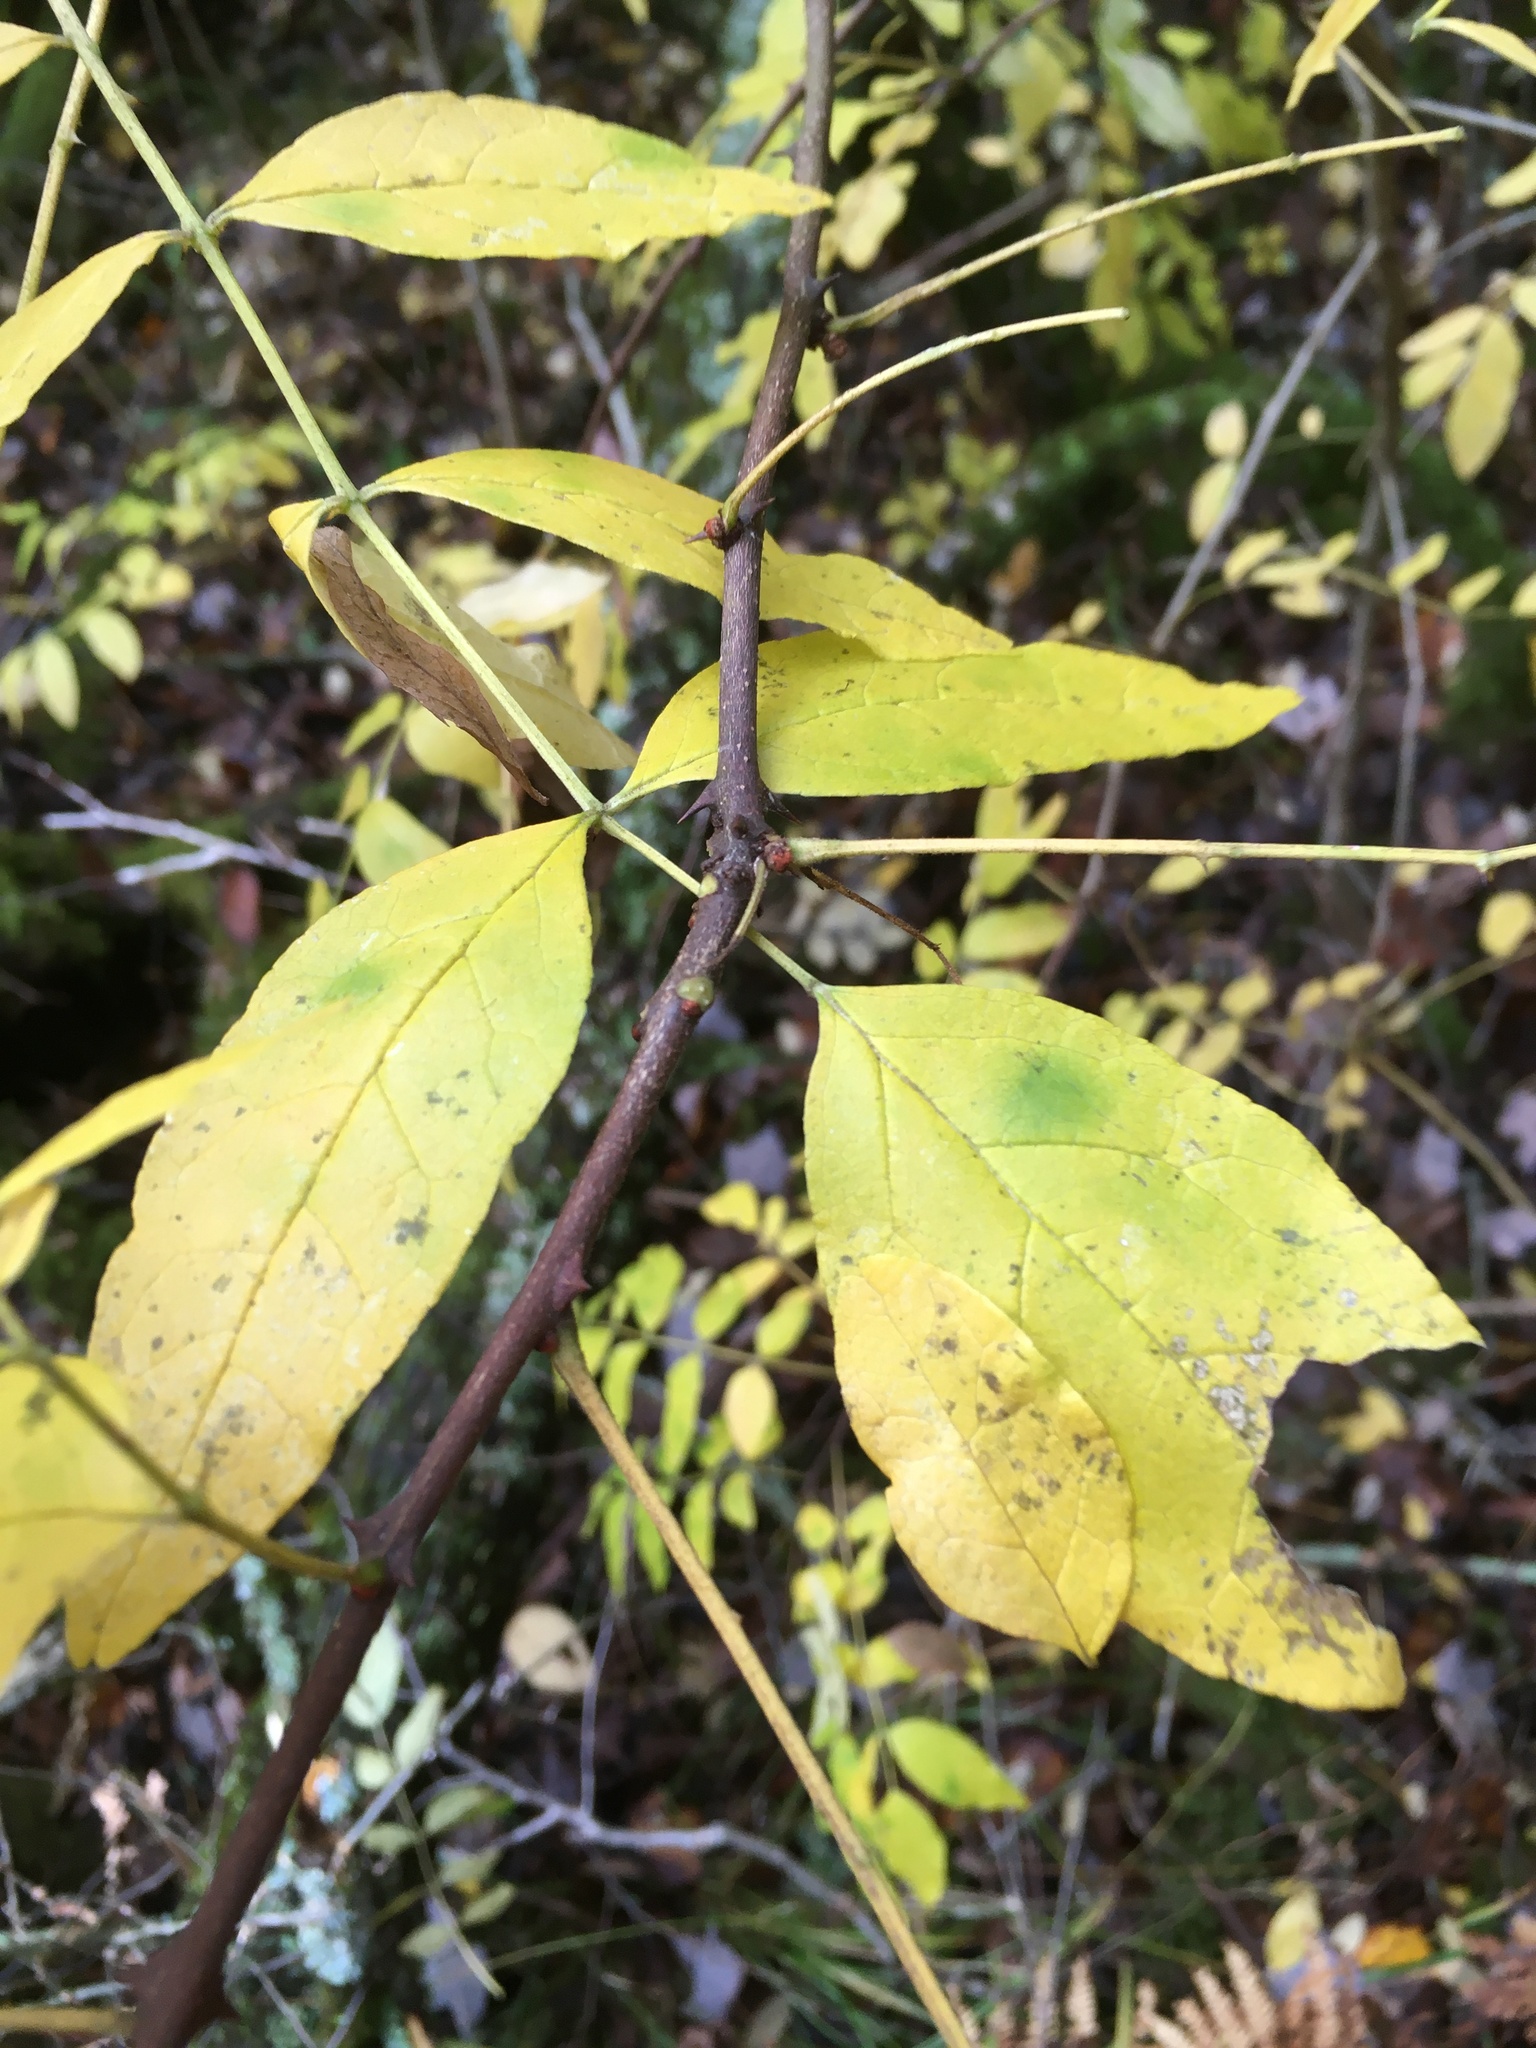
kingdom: Plantae
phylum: Tracheophyta
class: Magnoliopsida
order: Sapindales
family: Rutaceae
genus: Zanthoxylum
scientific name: Zanthoxylum americanum
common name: Northern prickly-ash
